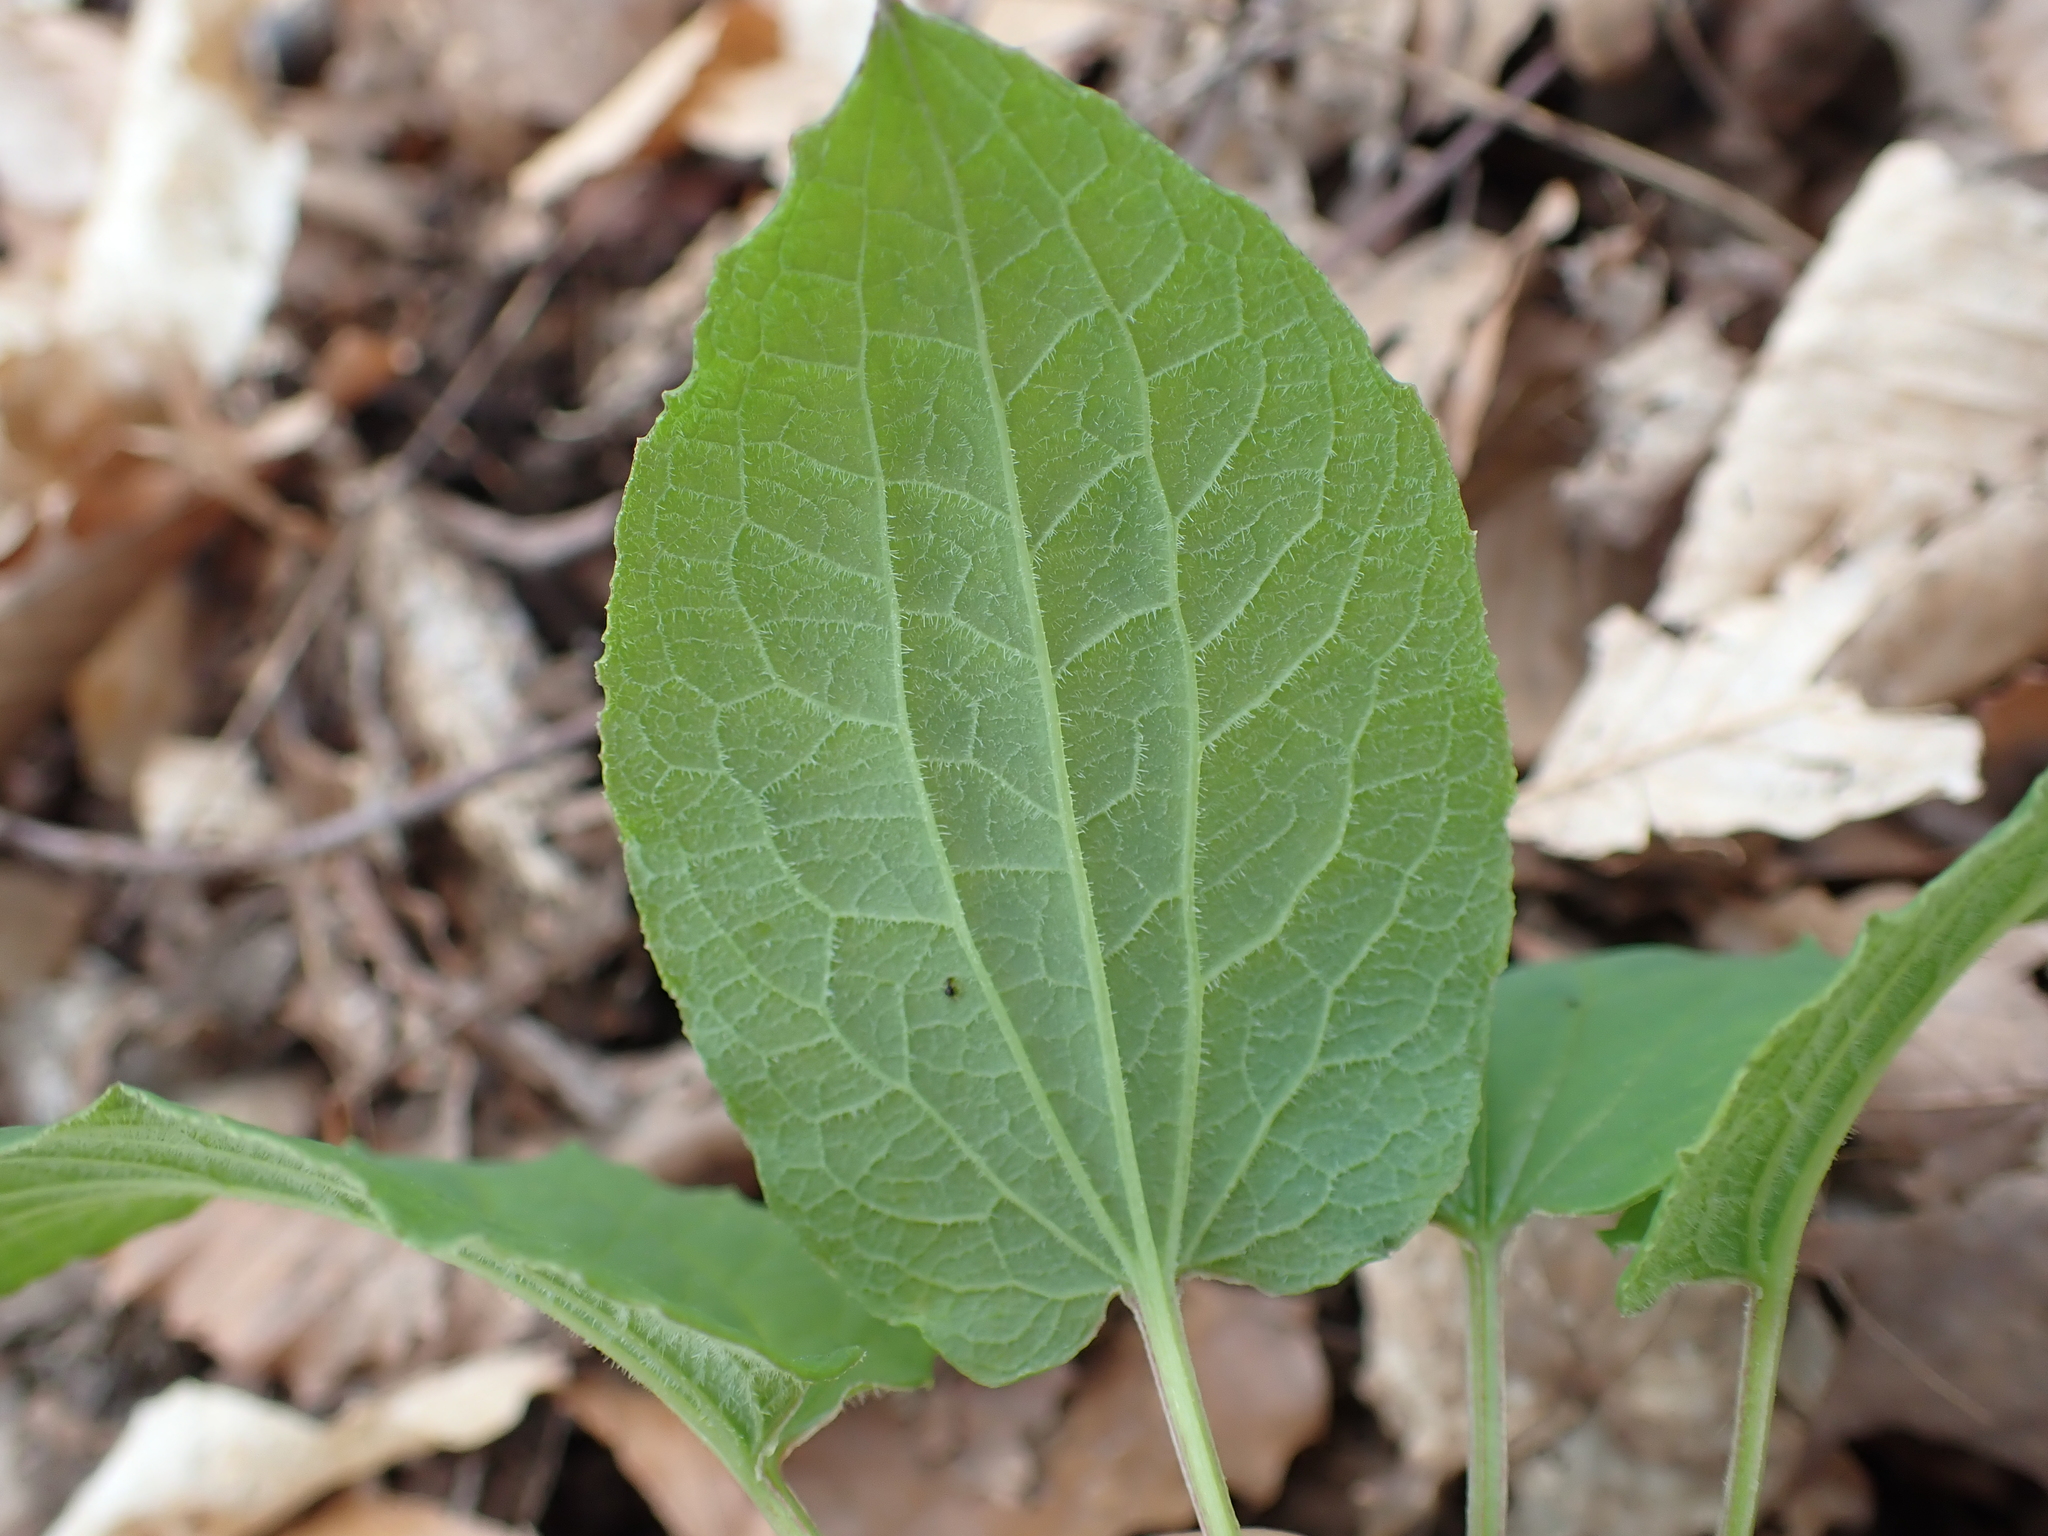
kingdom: Plantae
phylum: Tracheophyta
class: Liliopsida
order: Liliales
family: Smilacaceae
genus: Smilax
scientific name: Smilax ecirrhata
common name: Upright carrionflower
